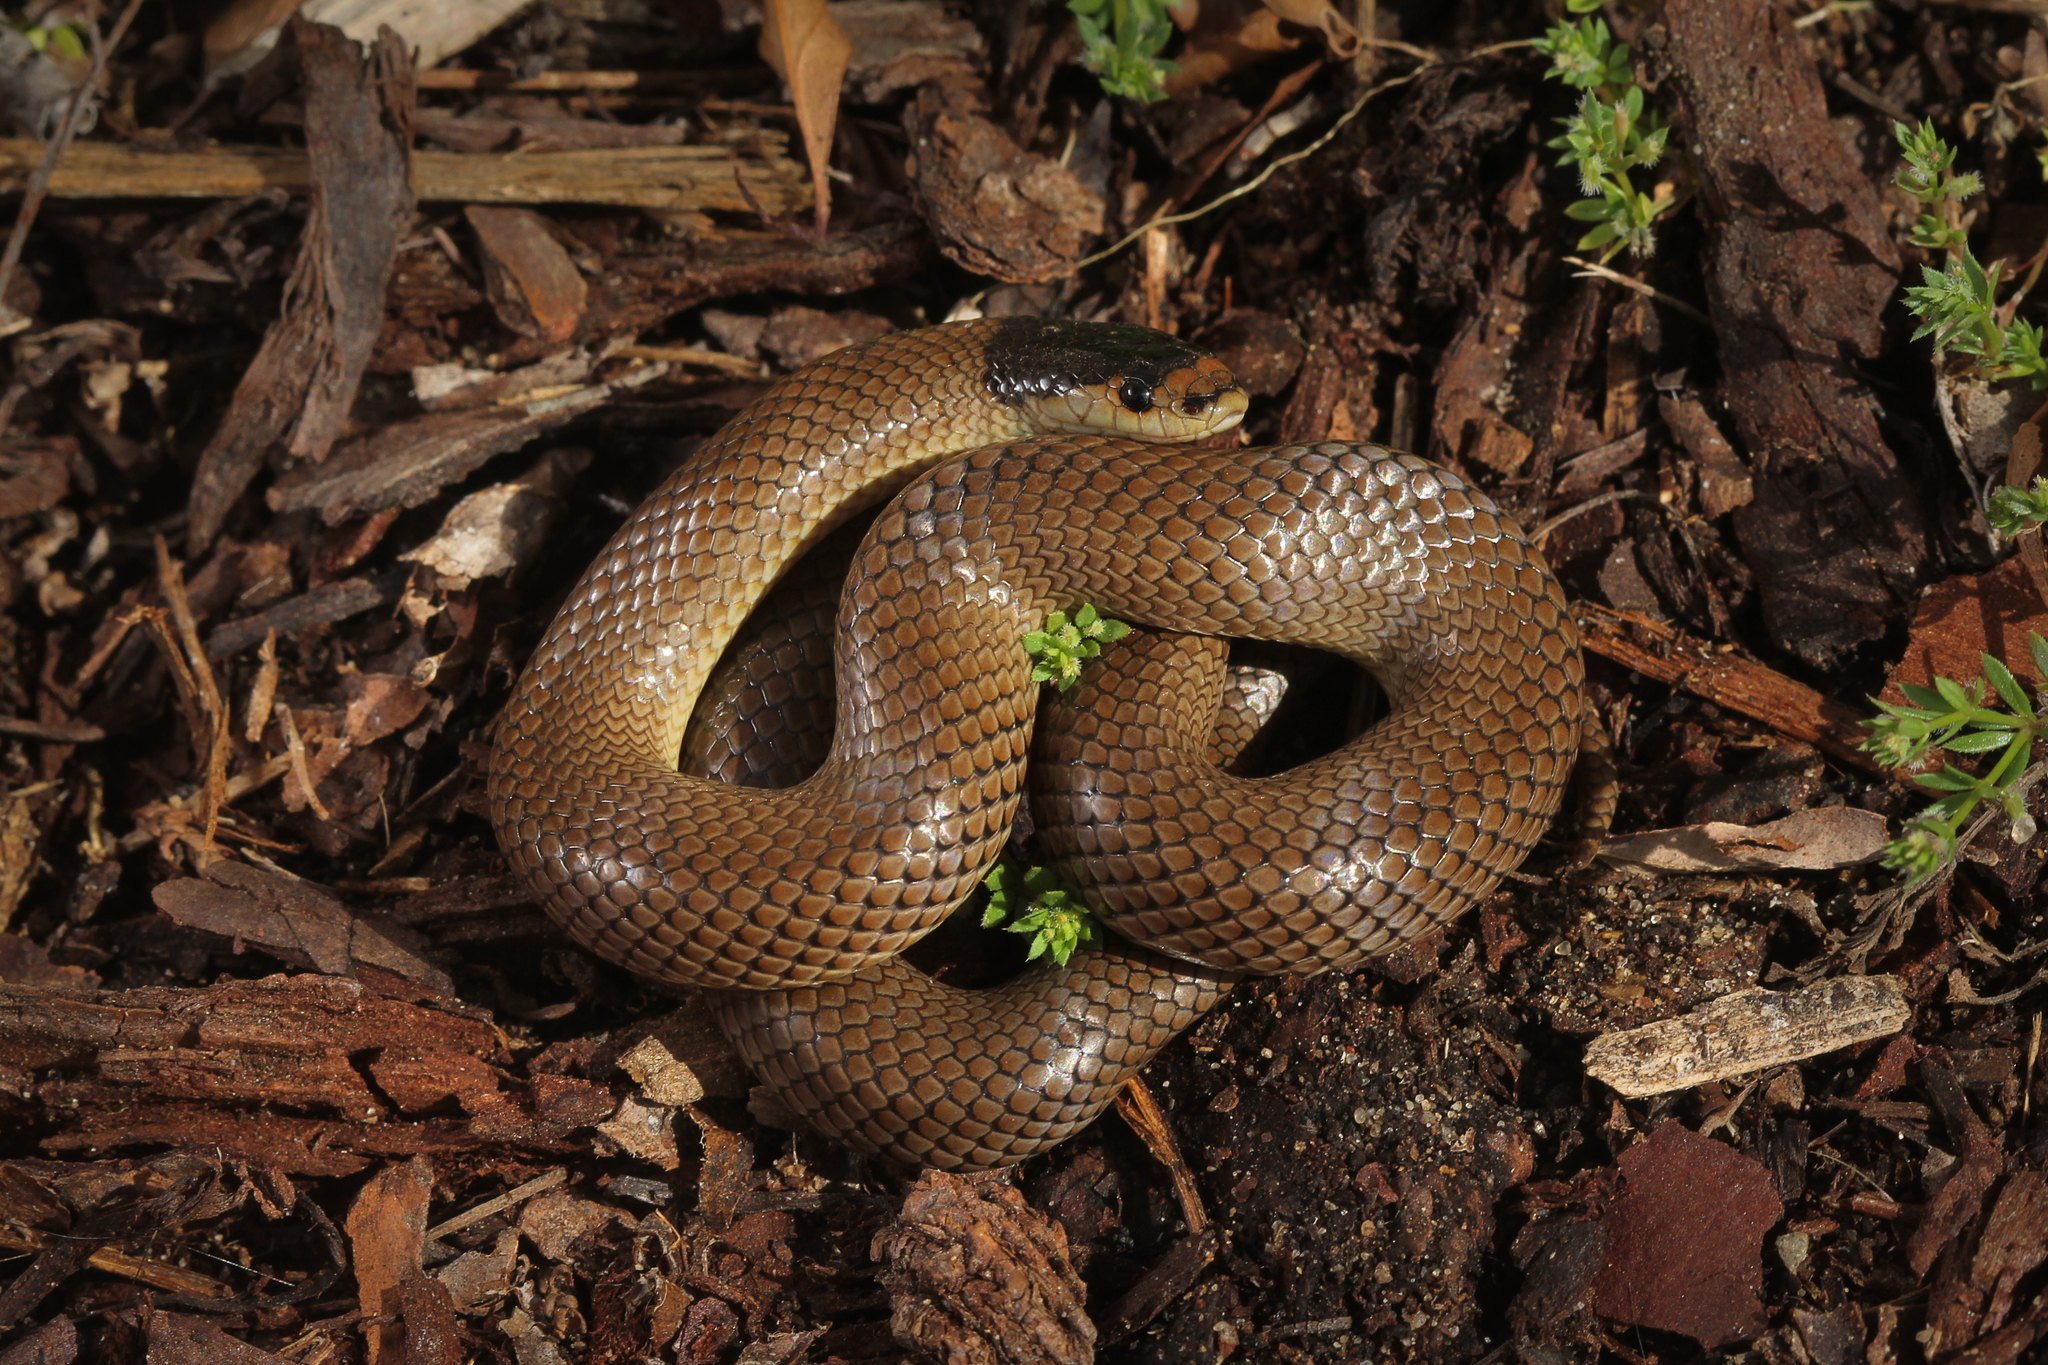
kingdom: Animalia
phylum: Chordata
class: Squamata
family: Elapidae
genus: Suta
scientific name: Suta flagellum
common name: Little whip snake
